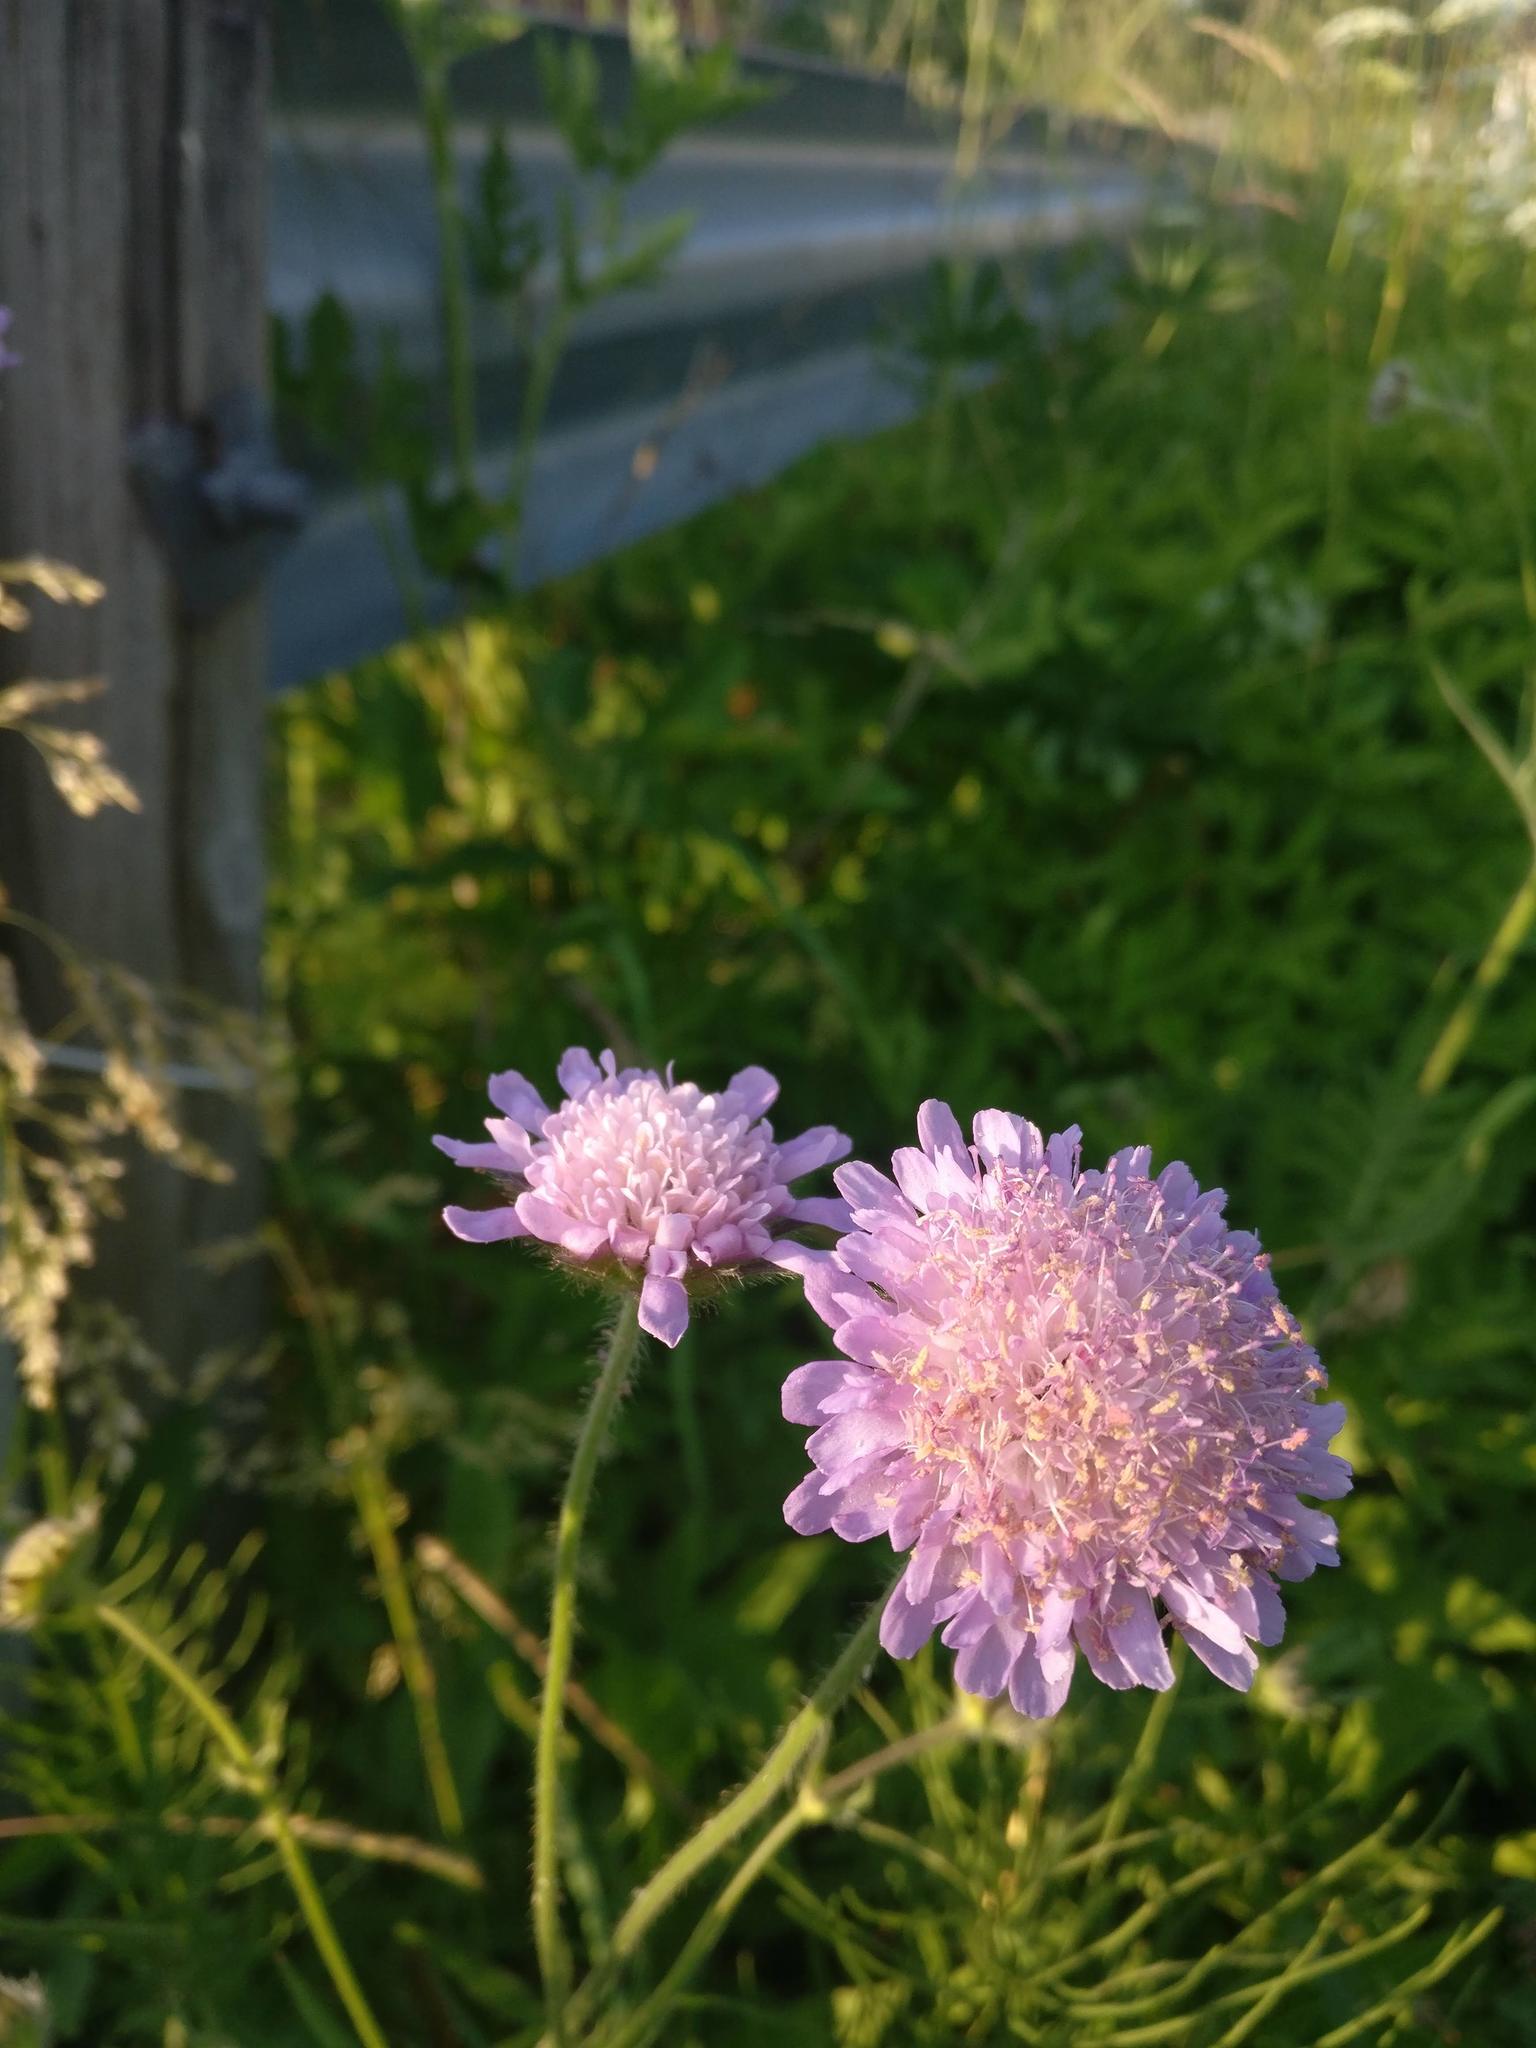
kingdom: Plantae
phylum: Tracheophyta
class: Magnoliopsida
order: Dipsacales
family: Caprifoliaceae
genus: Knautia
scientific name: Knautia arvensis
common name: Field scabiosa
